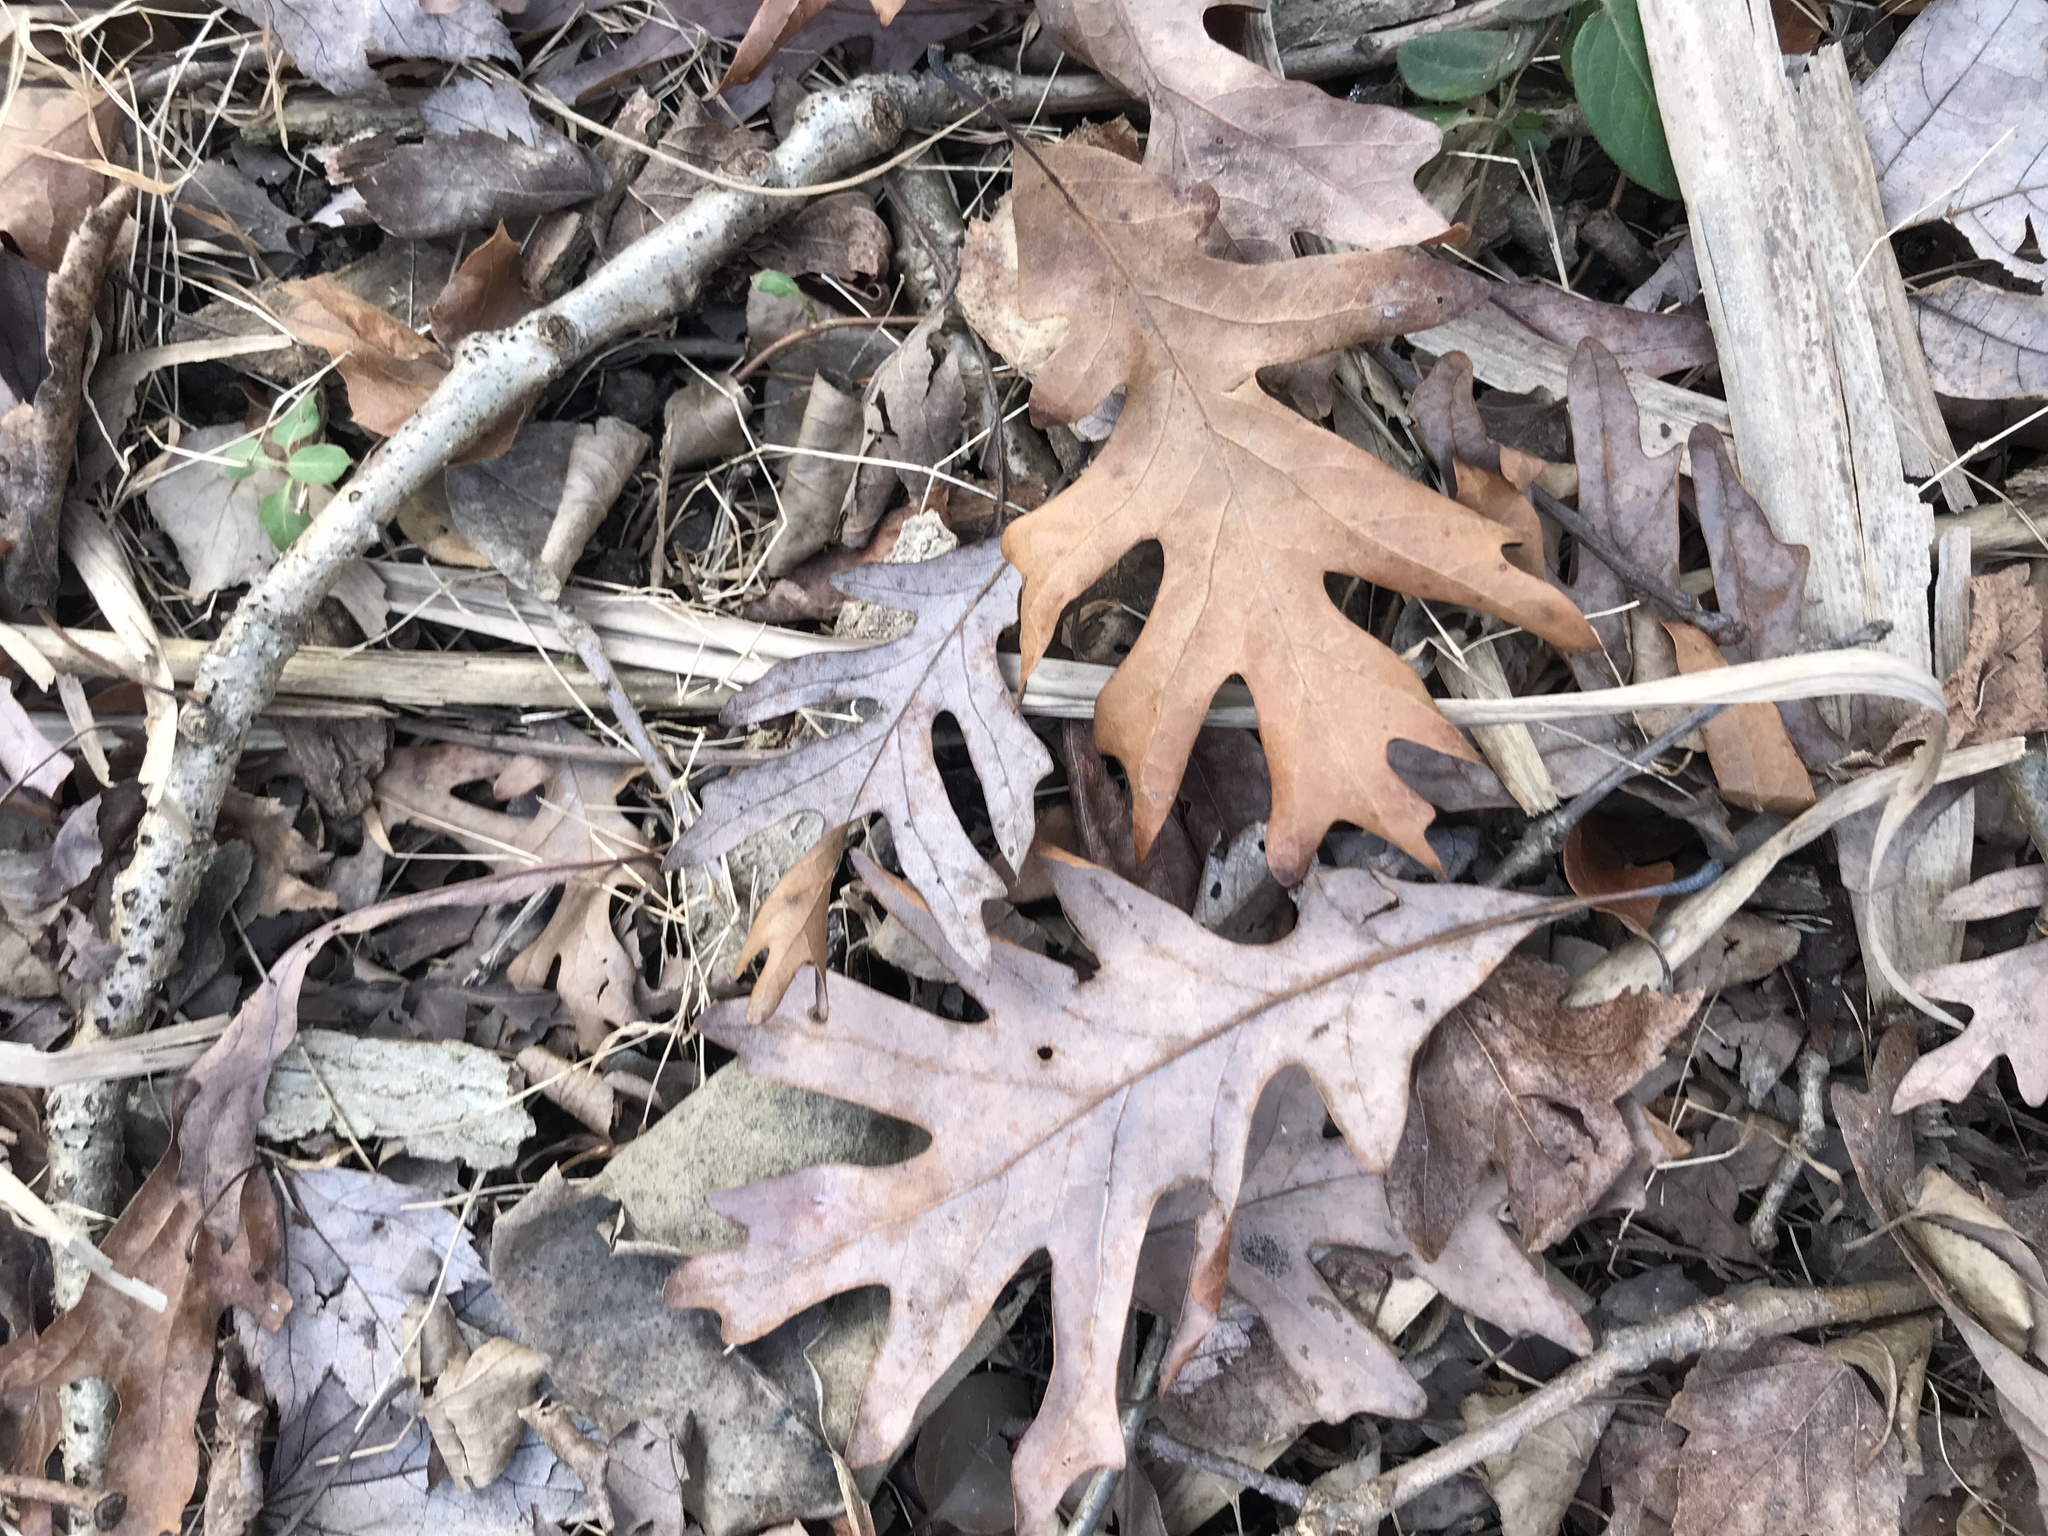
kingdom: Plantae
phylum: Tracheophyta
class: Magnoliopsida
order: Fagales
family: Fagaceae
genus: Quercus
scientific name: Quercus alba
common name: White oak
